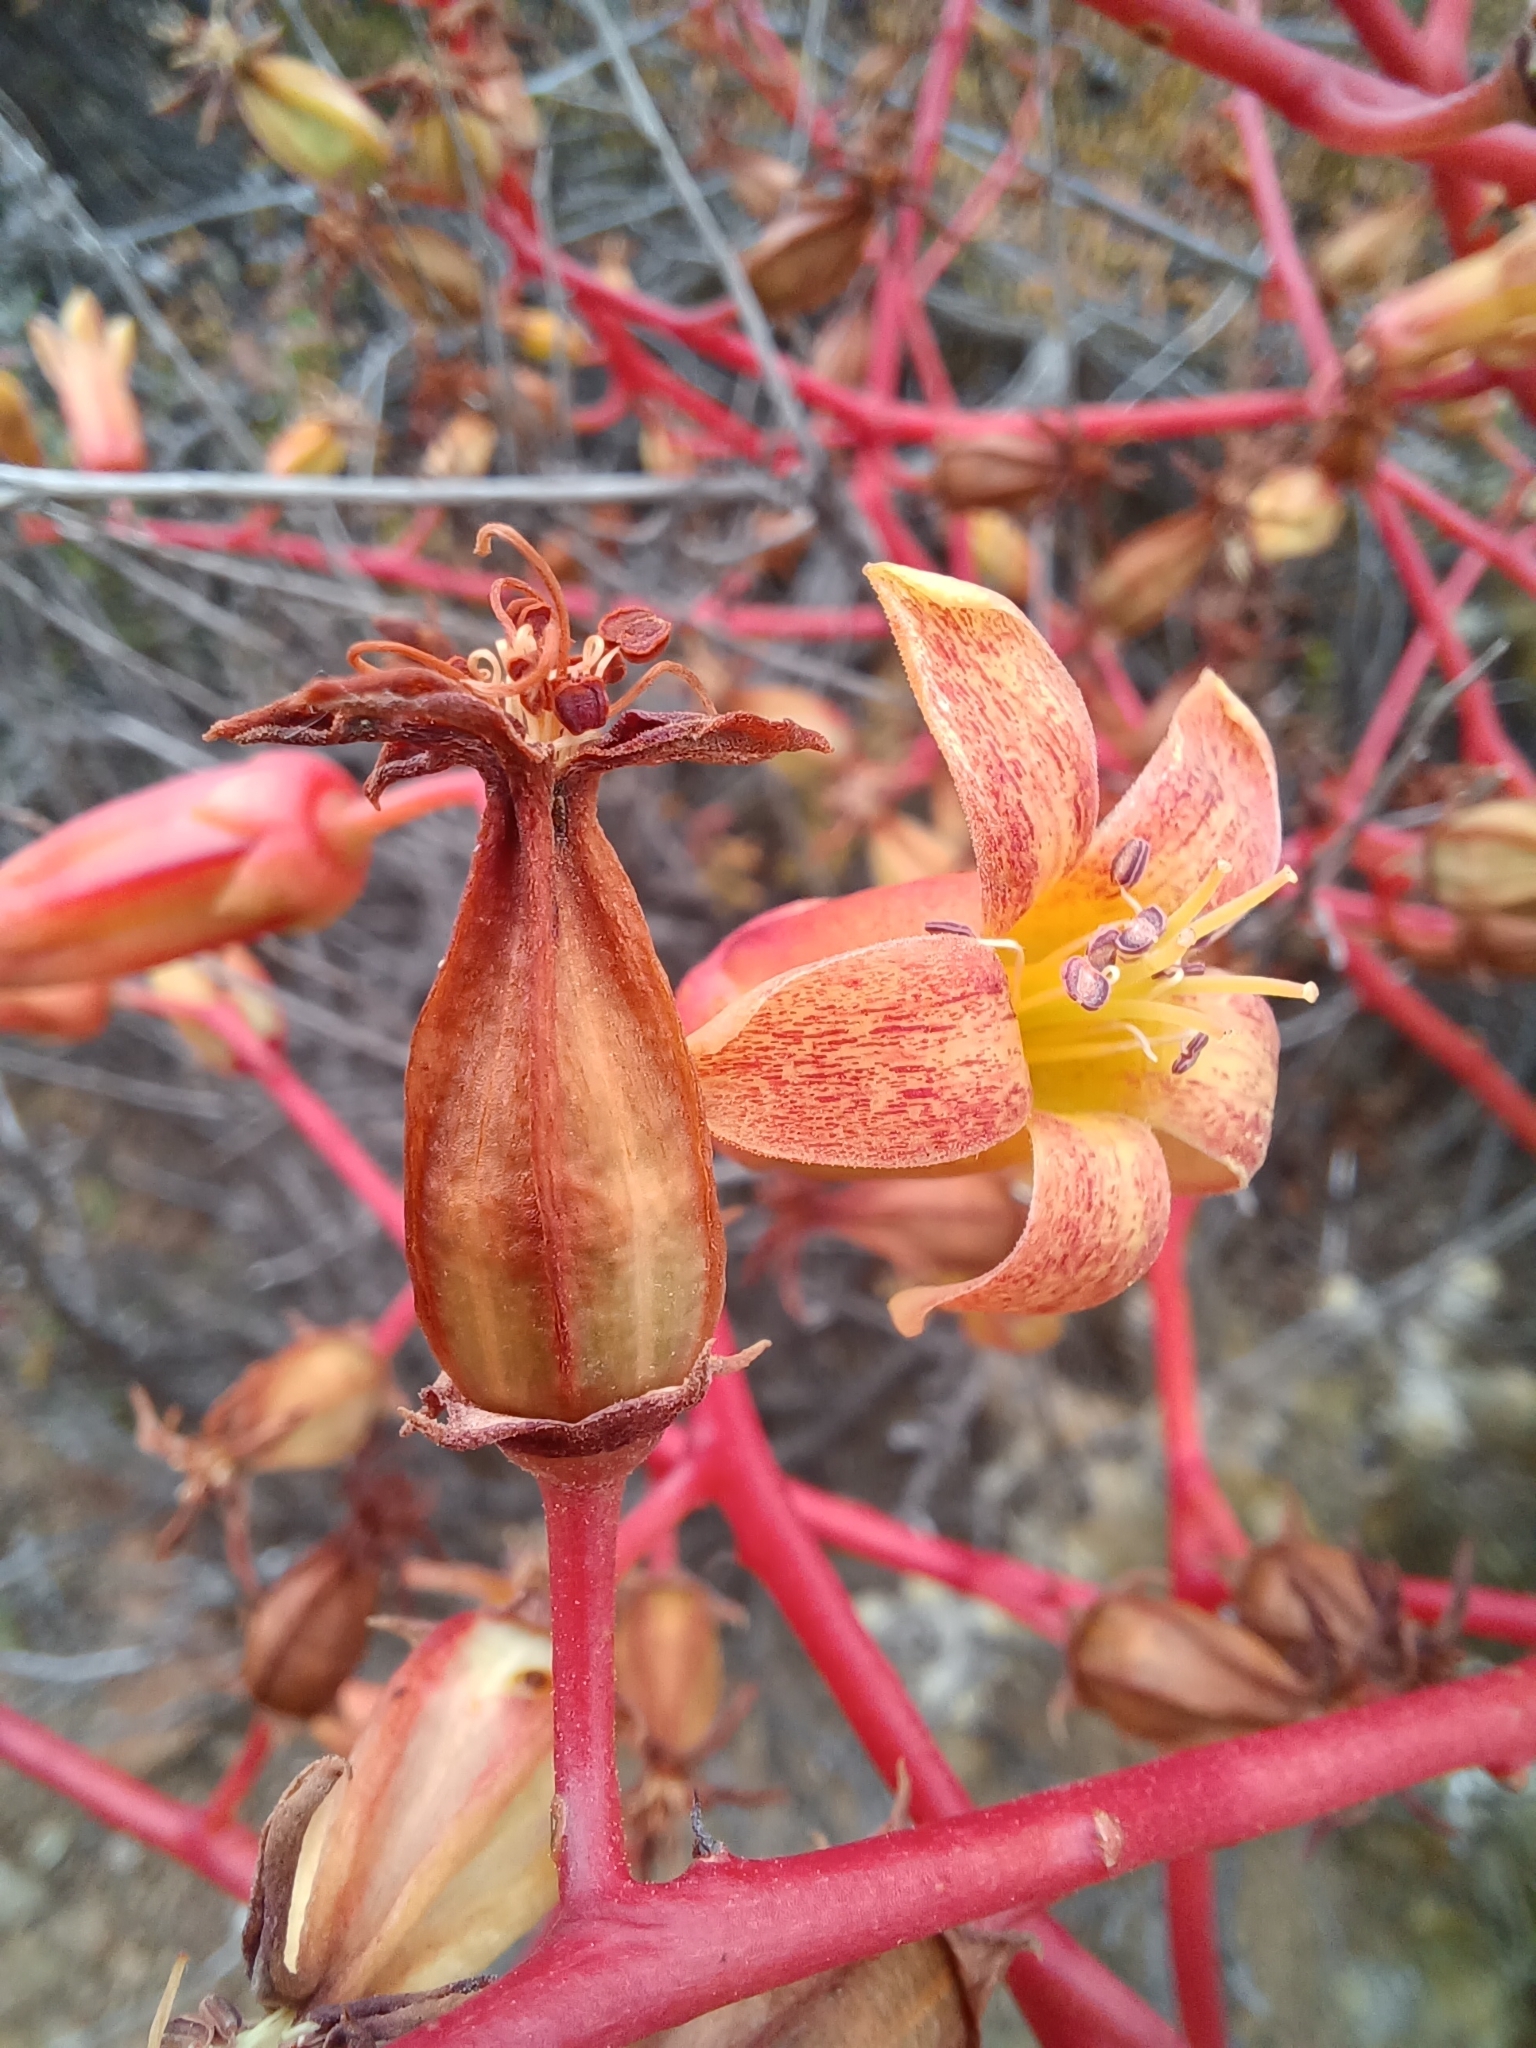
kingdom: Plantae
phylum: Tracheophyta
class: Magnoliopsida
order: Saxifragales
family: Crassulaceae
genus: Tylecodon
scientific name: Tylecodon paniculatus
